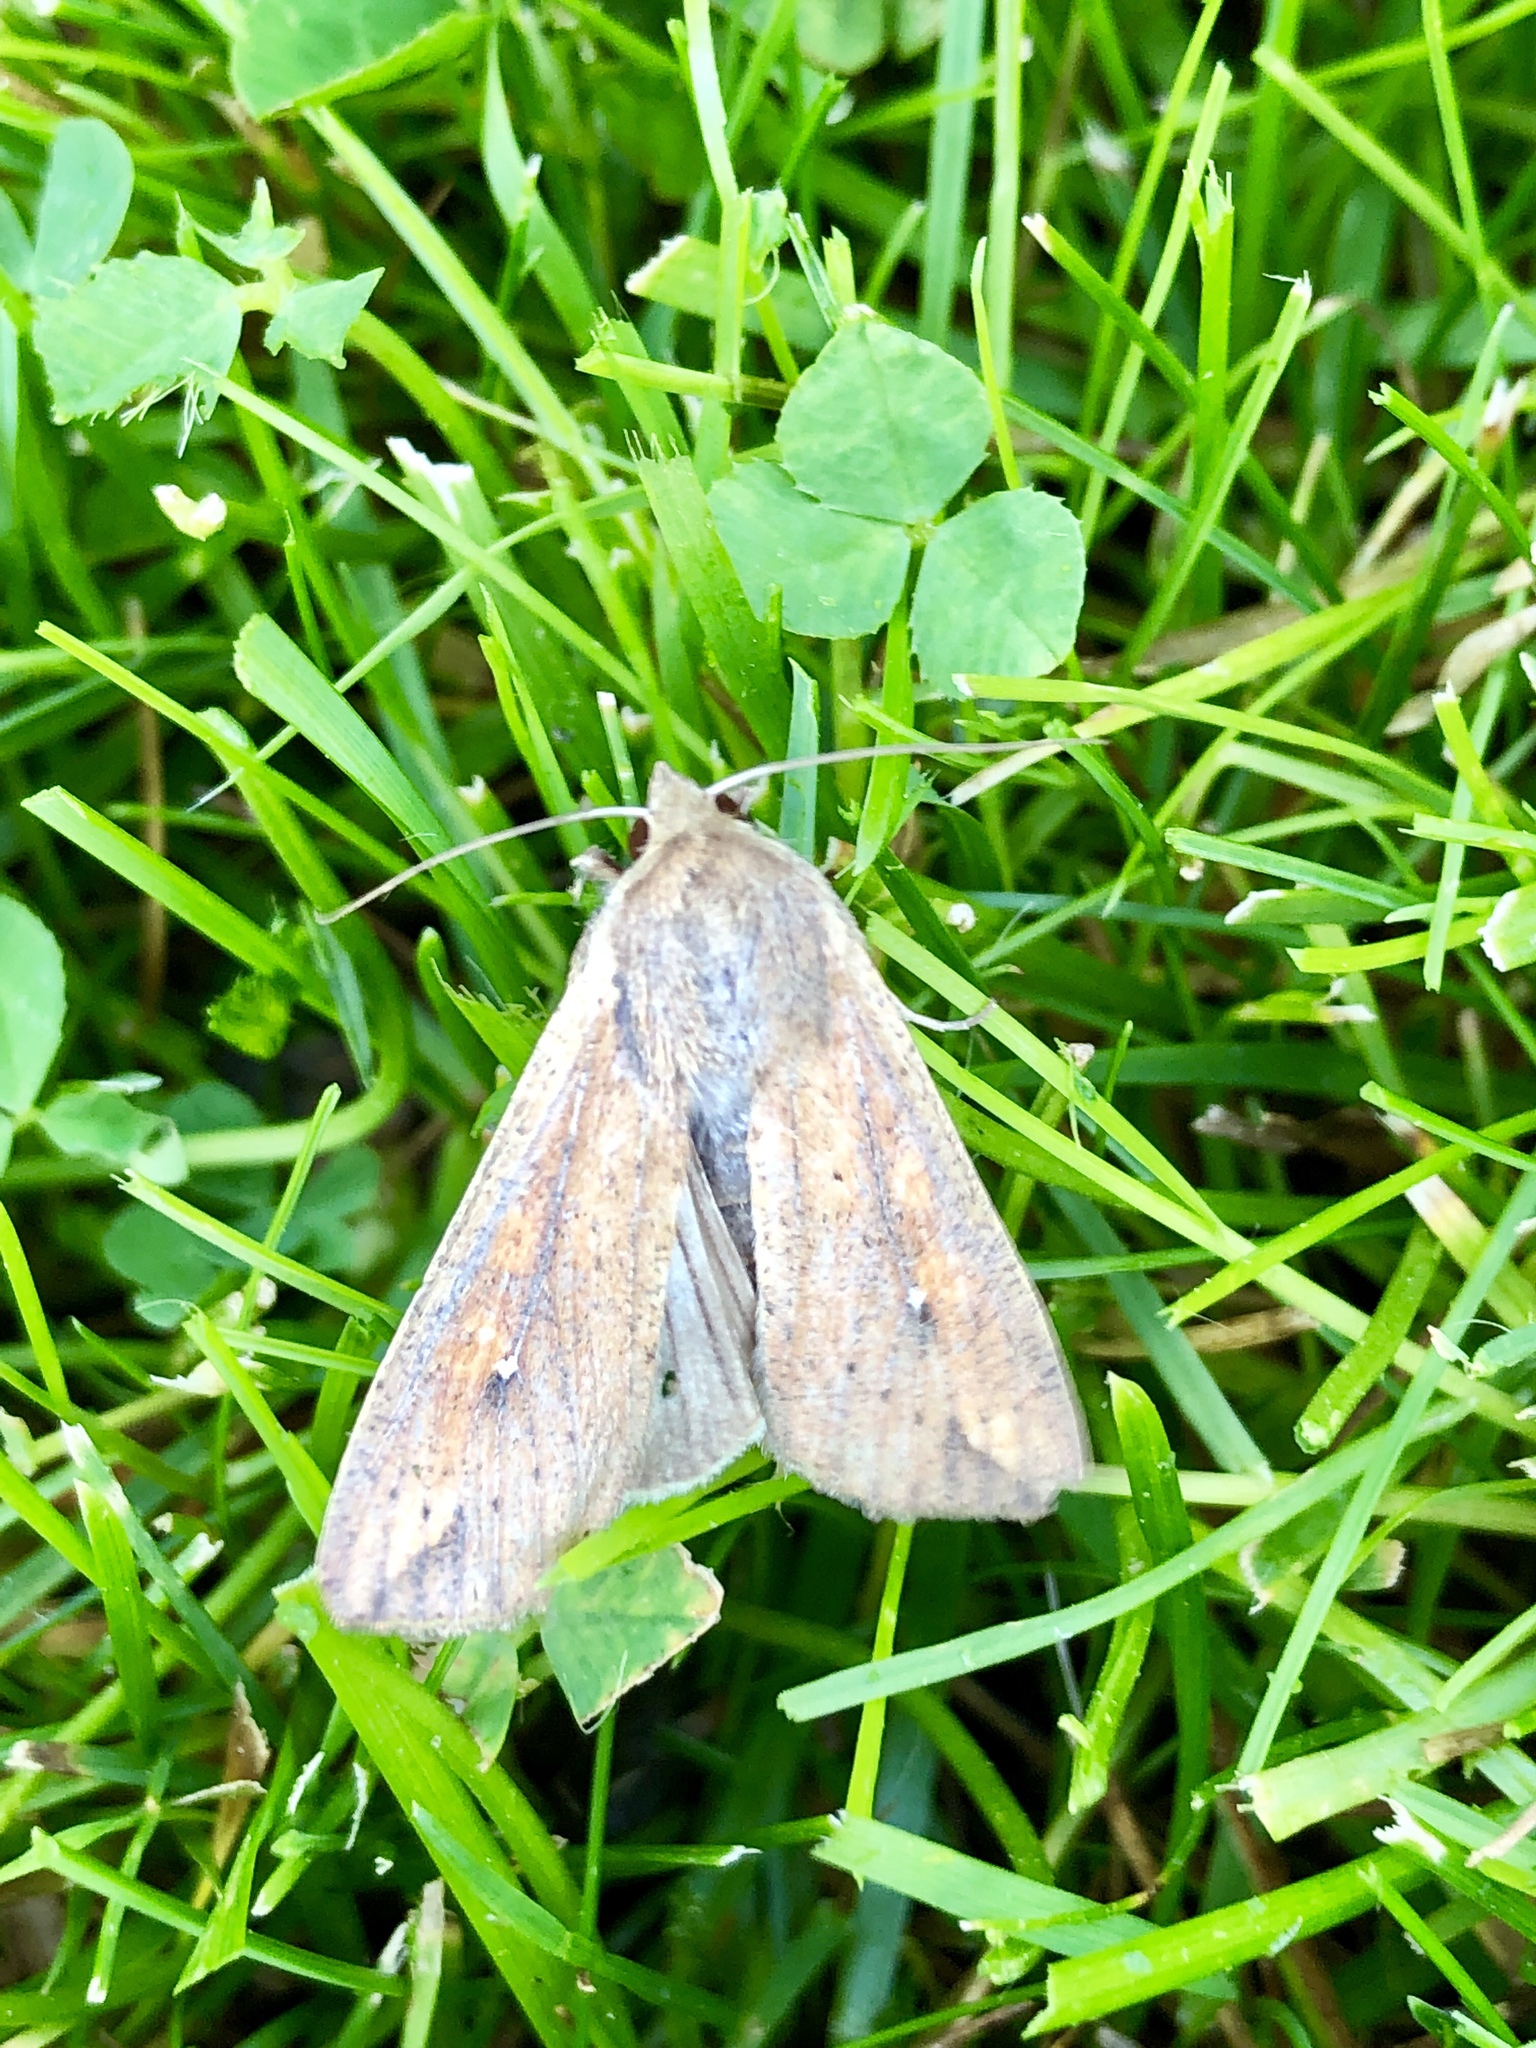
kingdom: Animalia
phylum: Arthropoda
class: Insecta
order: Lepidoptera
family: Noctuidae
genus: Mythimna
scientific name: Mythimna unipuncta
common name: White-speck
